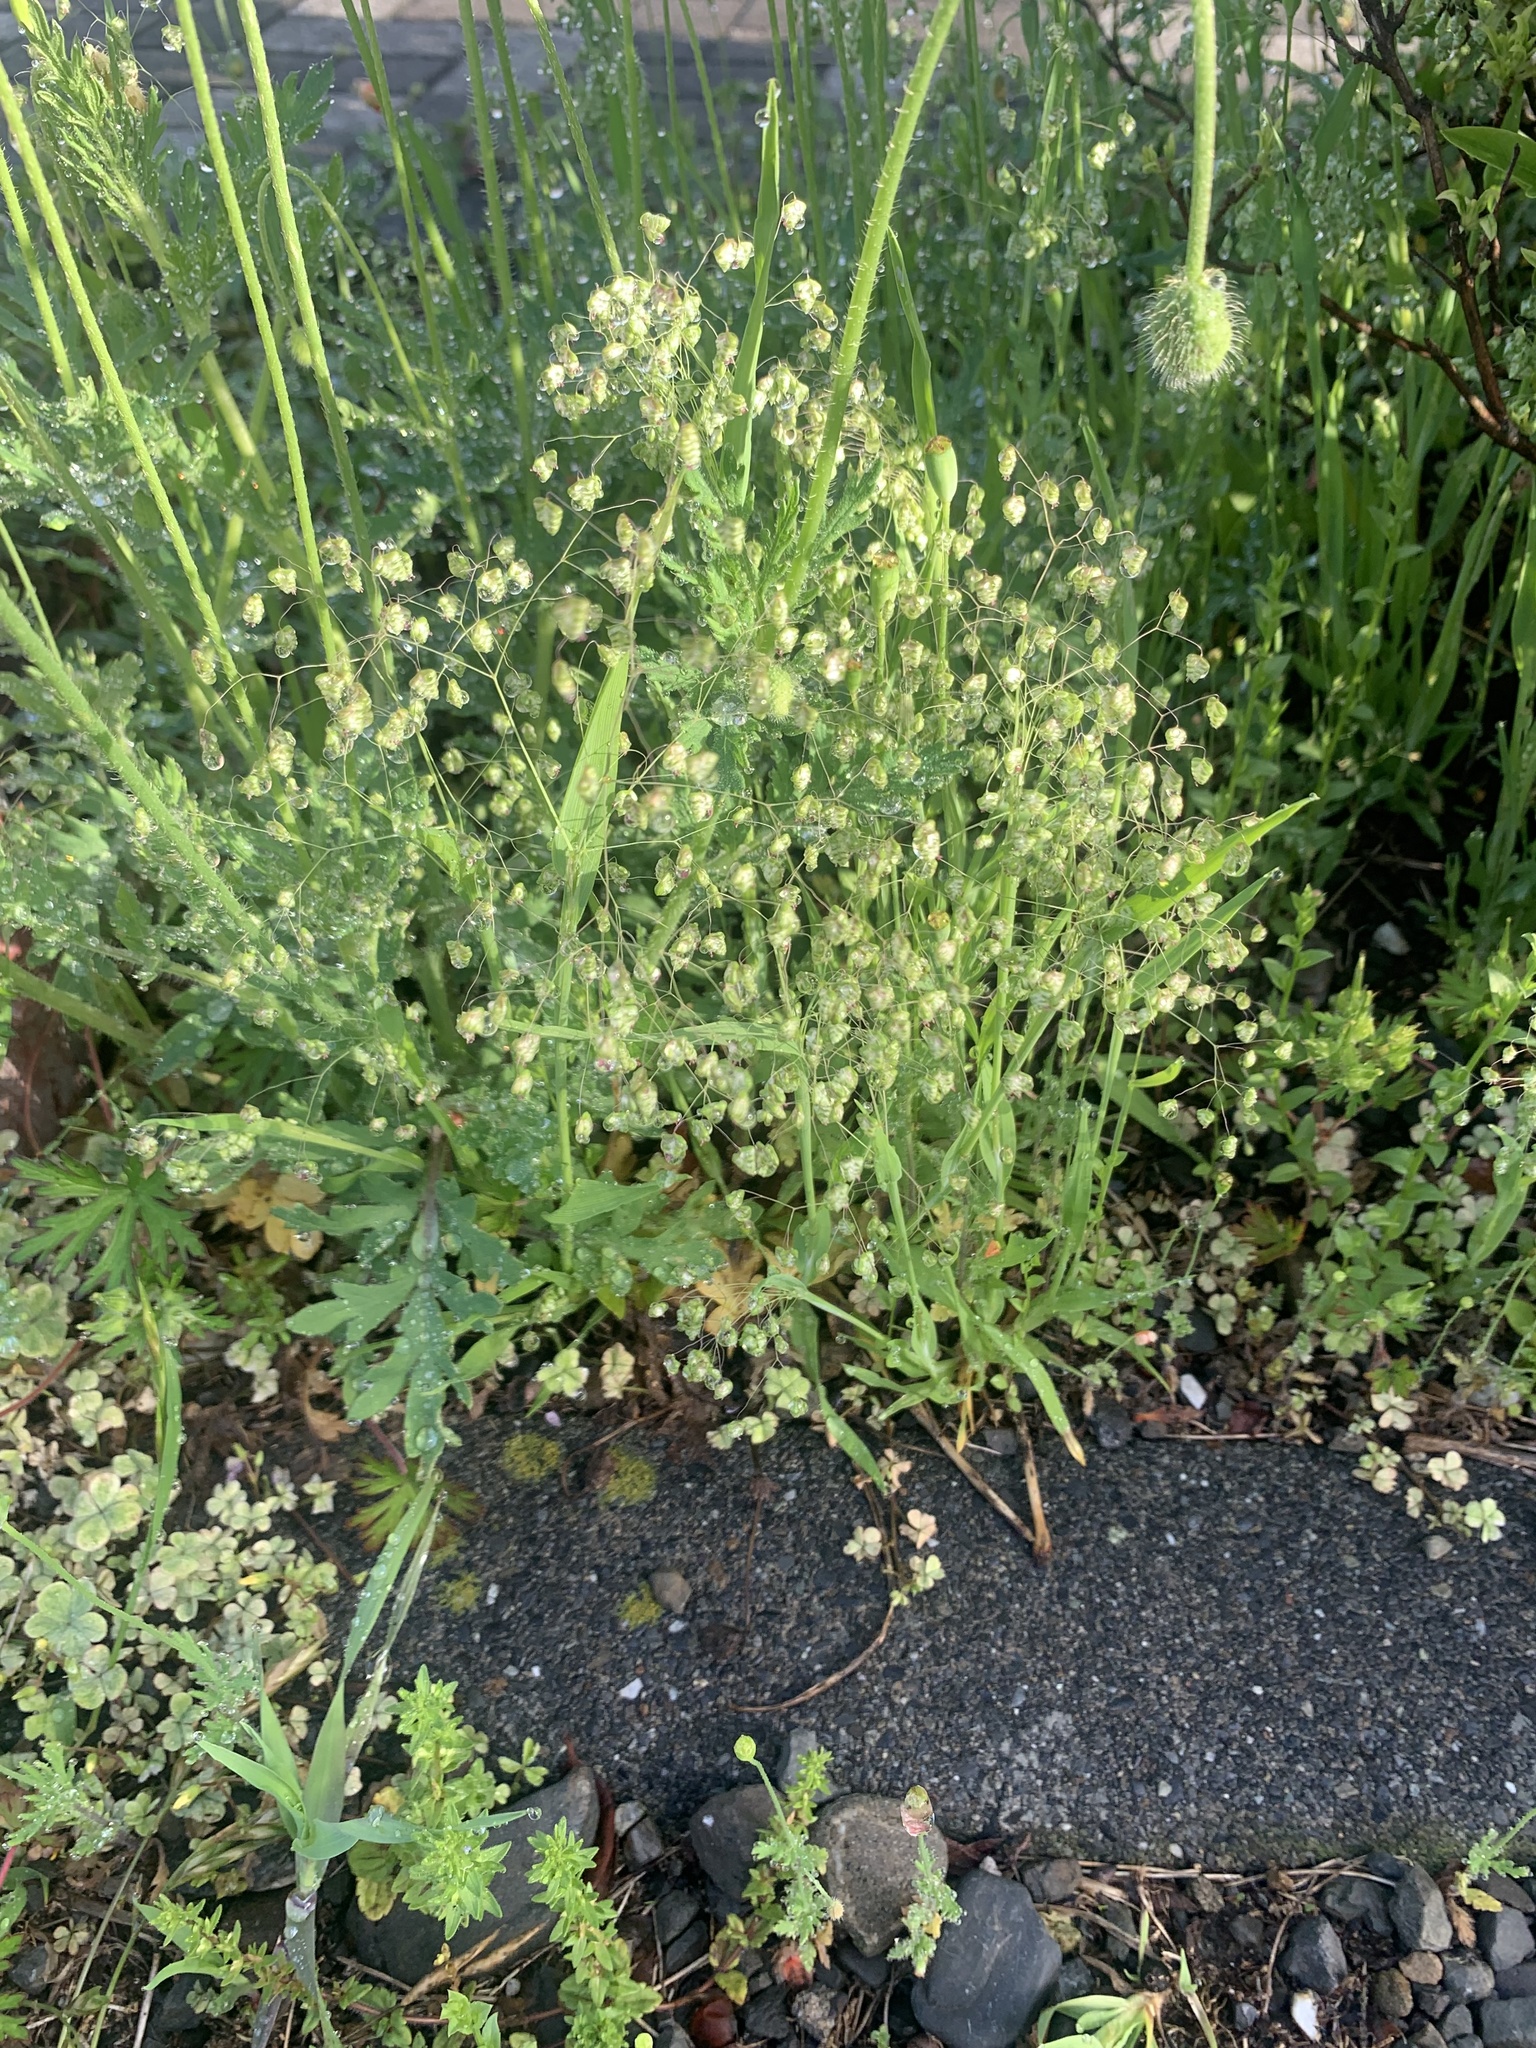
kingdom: Plantae
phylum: Tracheophyta
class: Liliopsida
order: Poales
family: Poaceae
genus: Briza
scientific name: Briza minor
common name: Lesser quaking-grass
